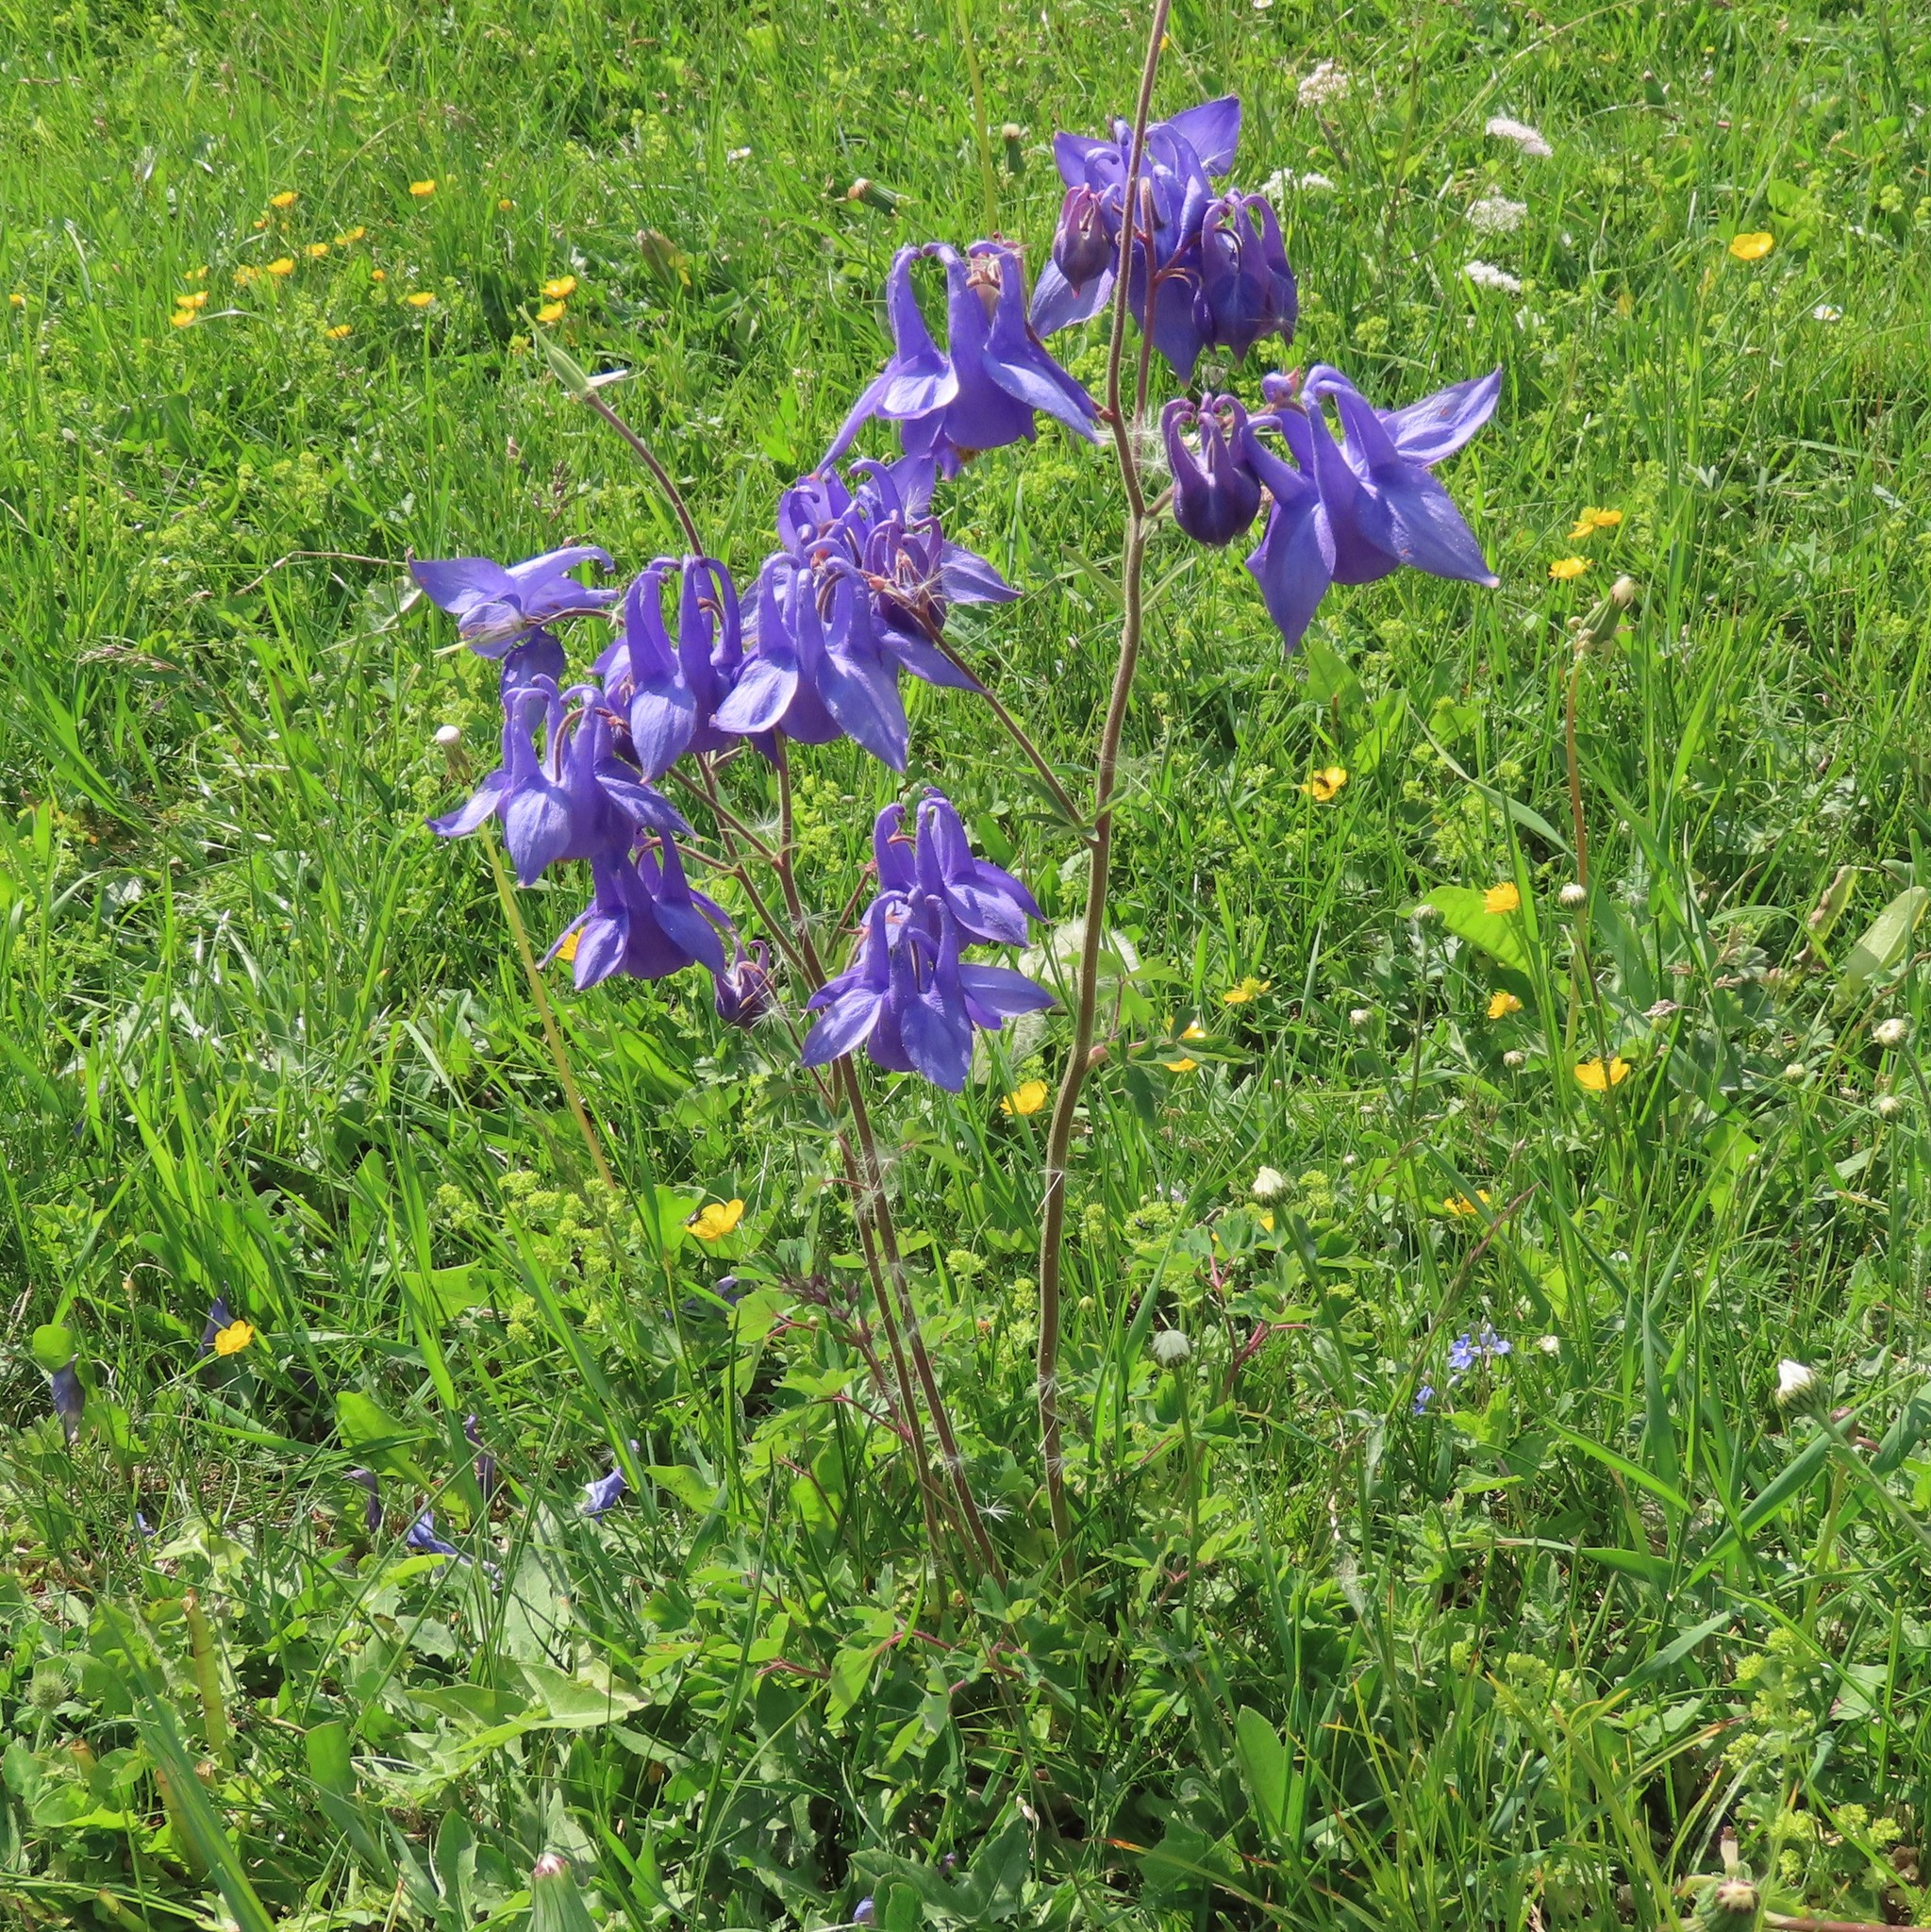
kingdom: Plantae
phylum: Tracheophyta
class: Magnoliopsida
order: Ranunculales
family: Ranunculaceae
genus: Aquilegia
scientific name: Aquilegia nigricans
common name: Bulgarian columbine
